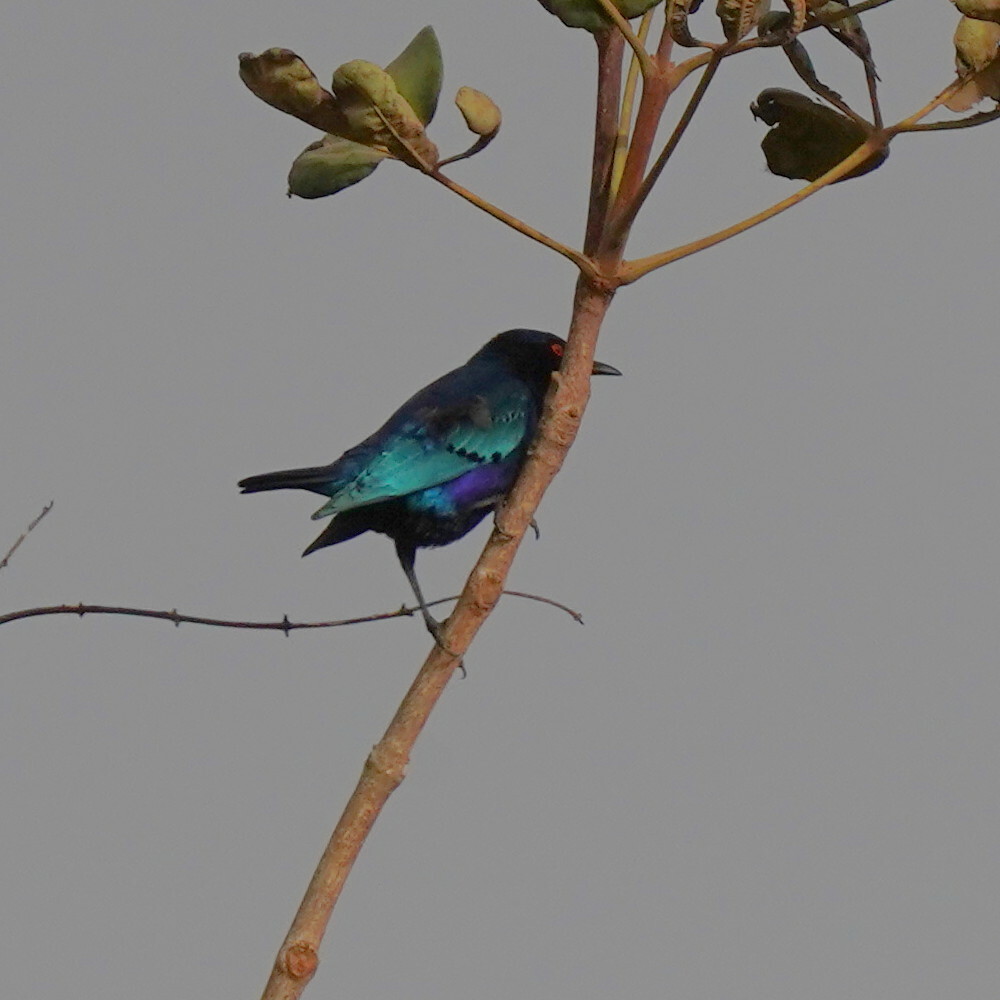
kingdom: Animalia
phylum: Chordata
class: Aves
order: Passeriformes
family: Sturnidae
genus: Lamprotornis
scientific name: Lamprotornis chalcurus
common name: Bronze-tailed starling
